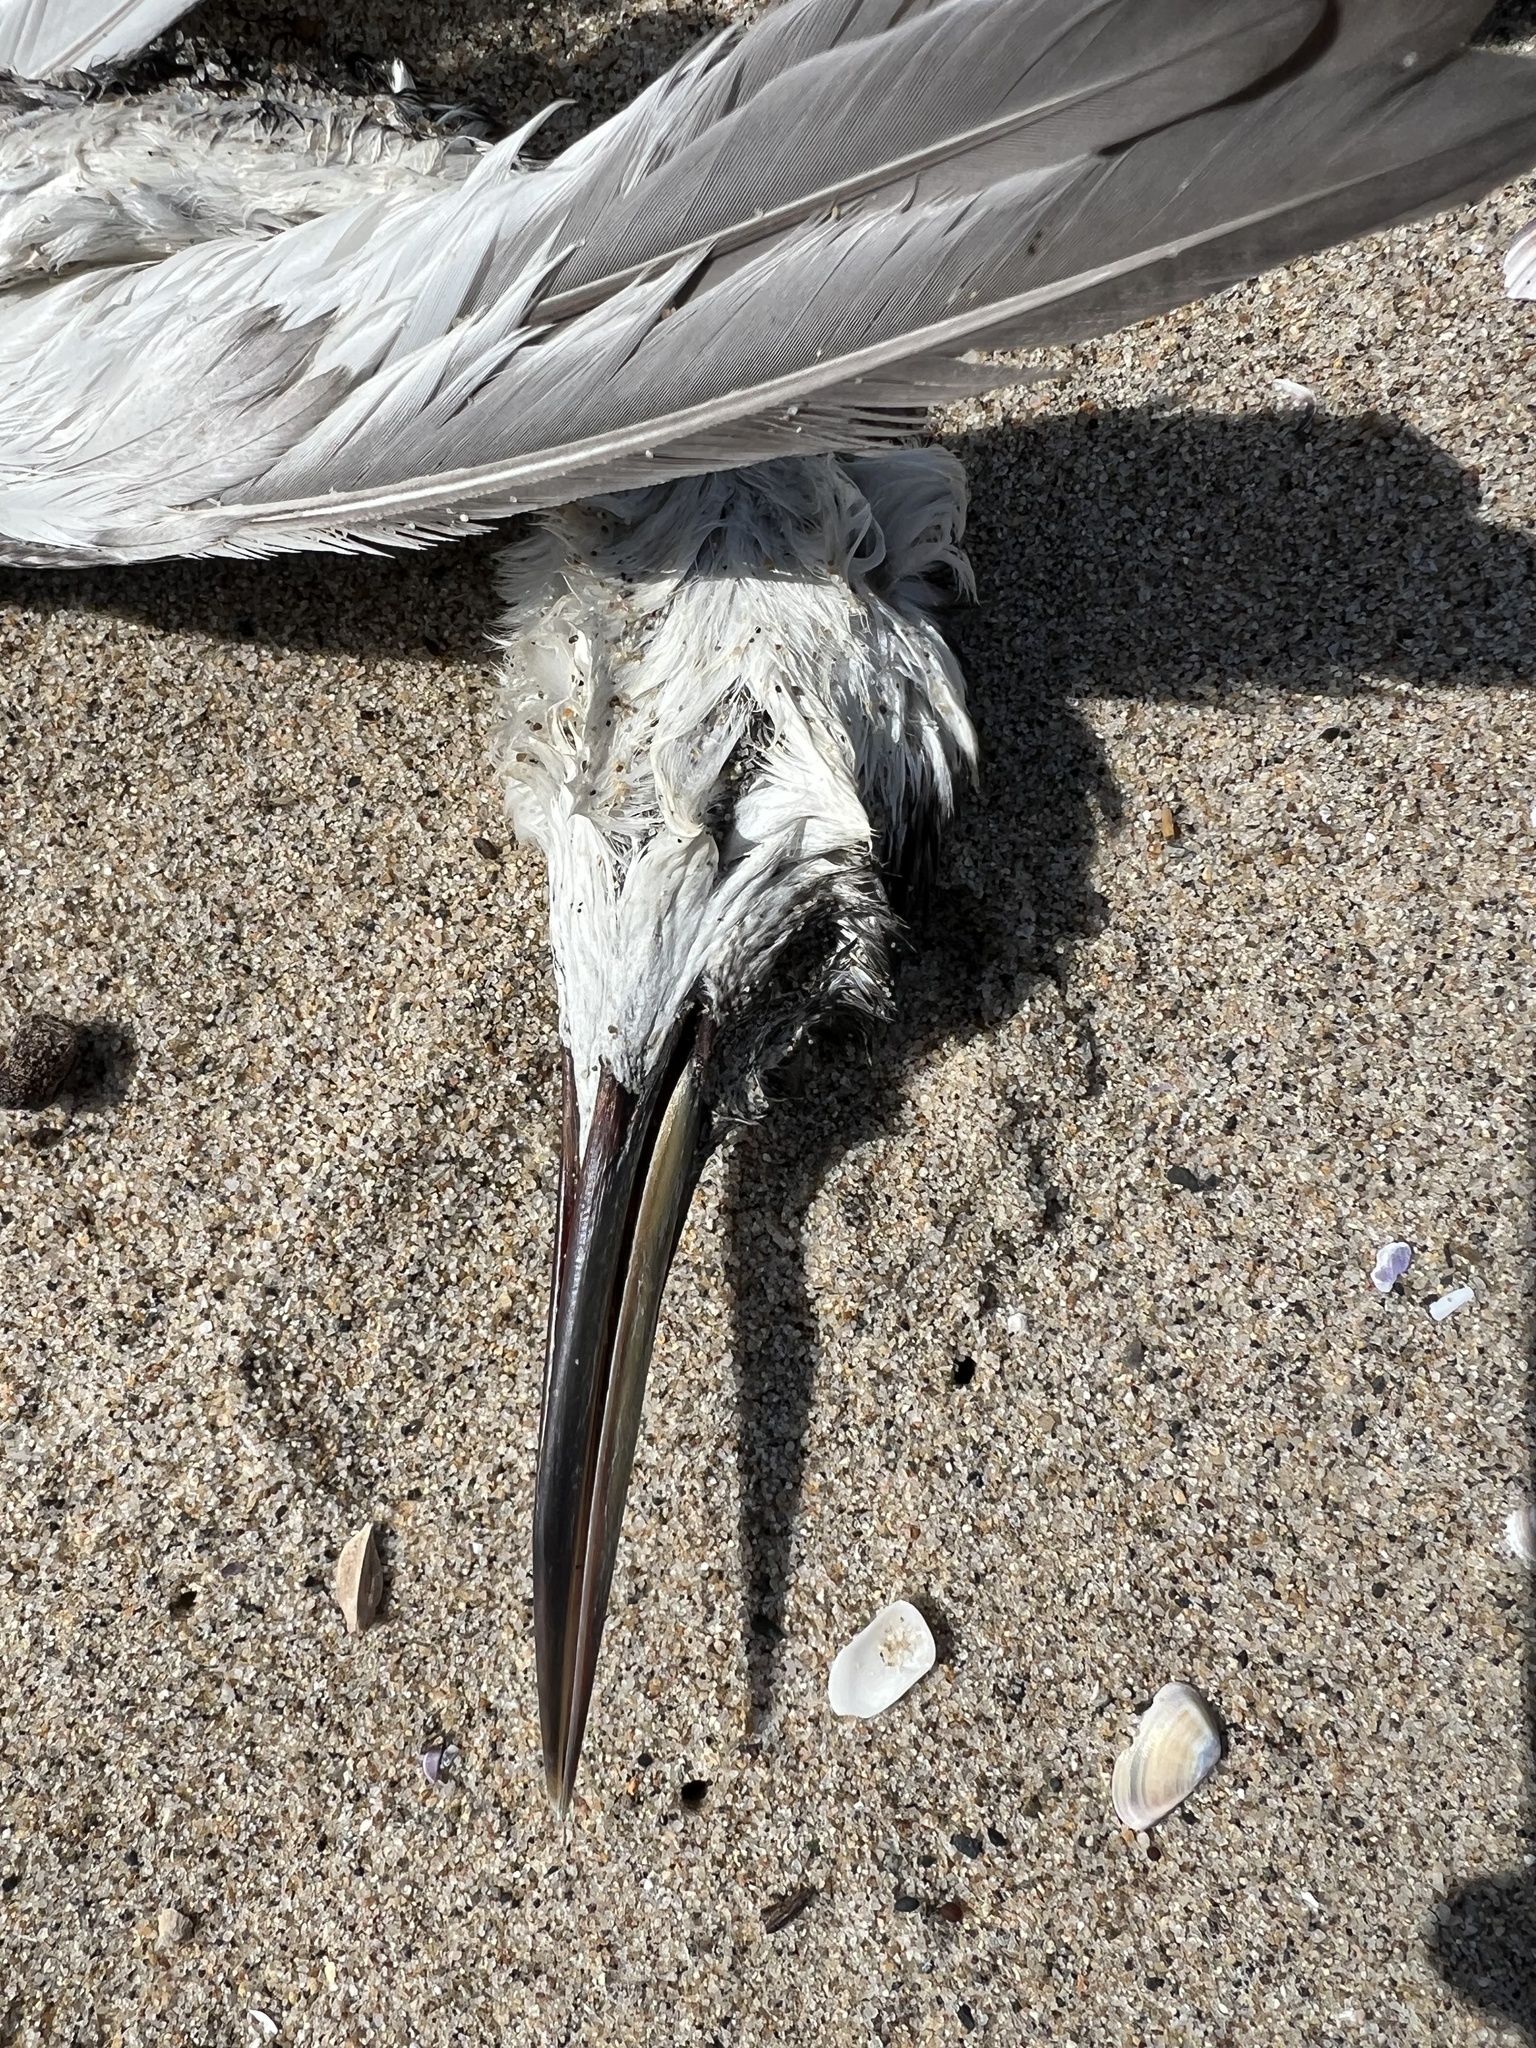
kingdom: Animalia
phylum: Chordata
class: Aves
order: Podicipediformes
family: Podicipedidae
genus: Aechmophorus
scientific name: Aechmophorus occidentalis
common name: Western grebe
